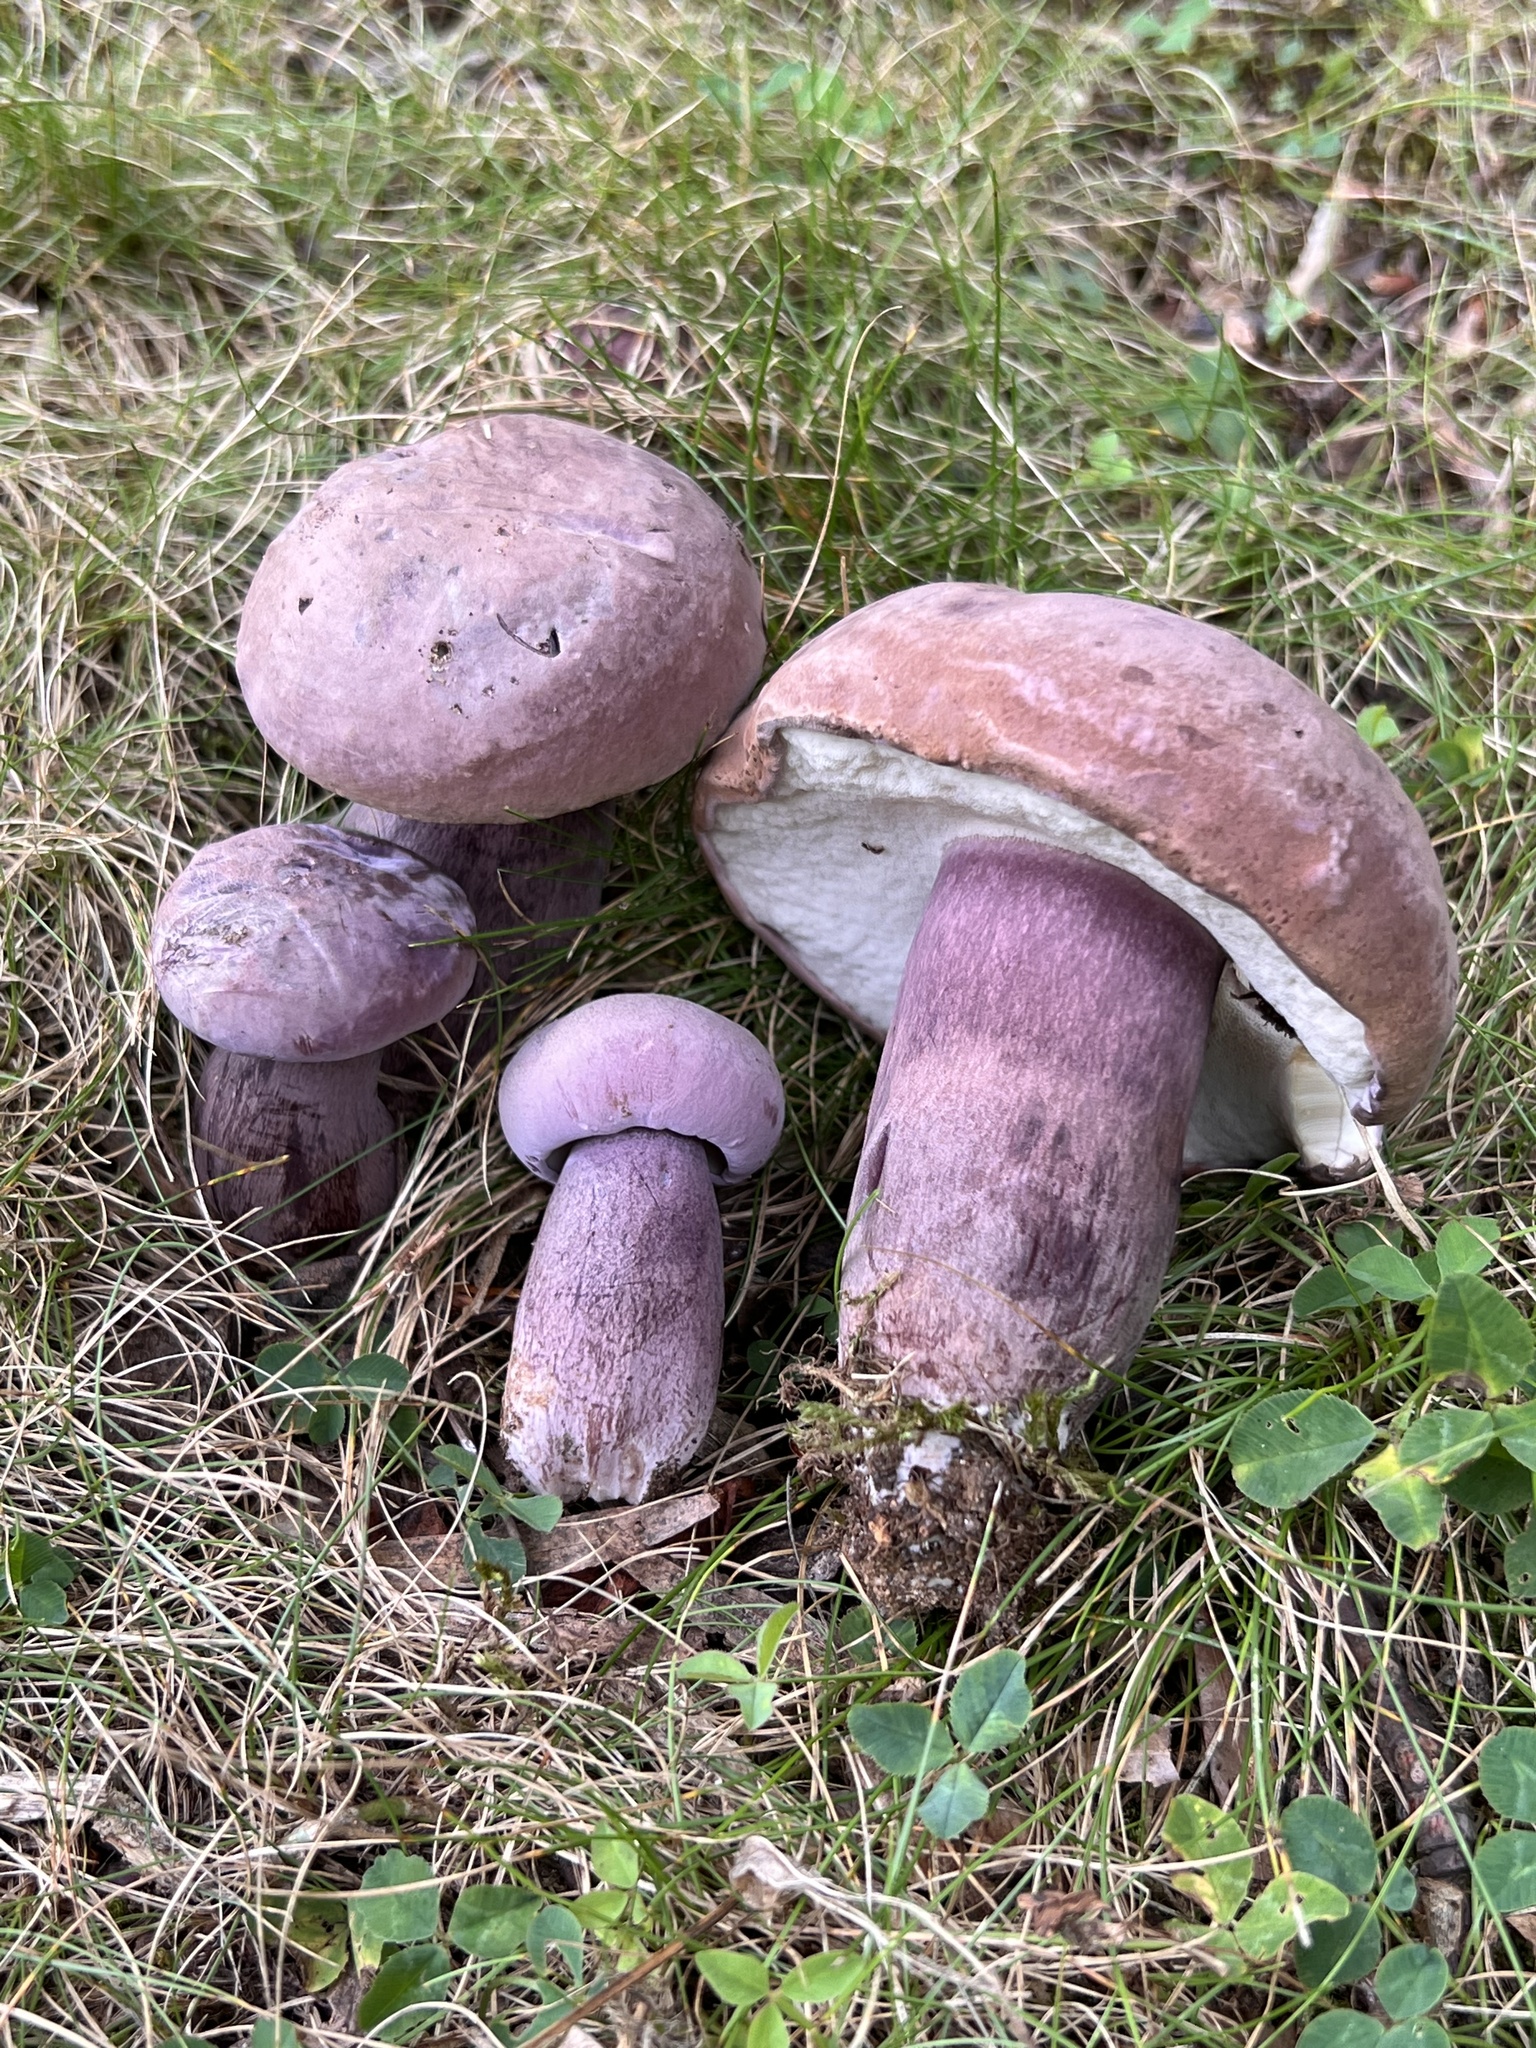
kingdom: Fungi
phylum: Basidiomycota
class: Agaricomycetes
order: Boletales
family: Boletaceae
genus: Tylopilus
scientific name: Tylopilus plumbeoviolaceus
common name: Violet gray bolete
